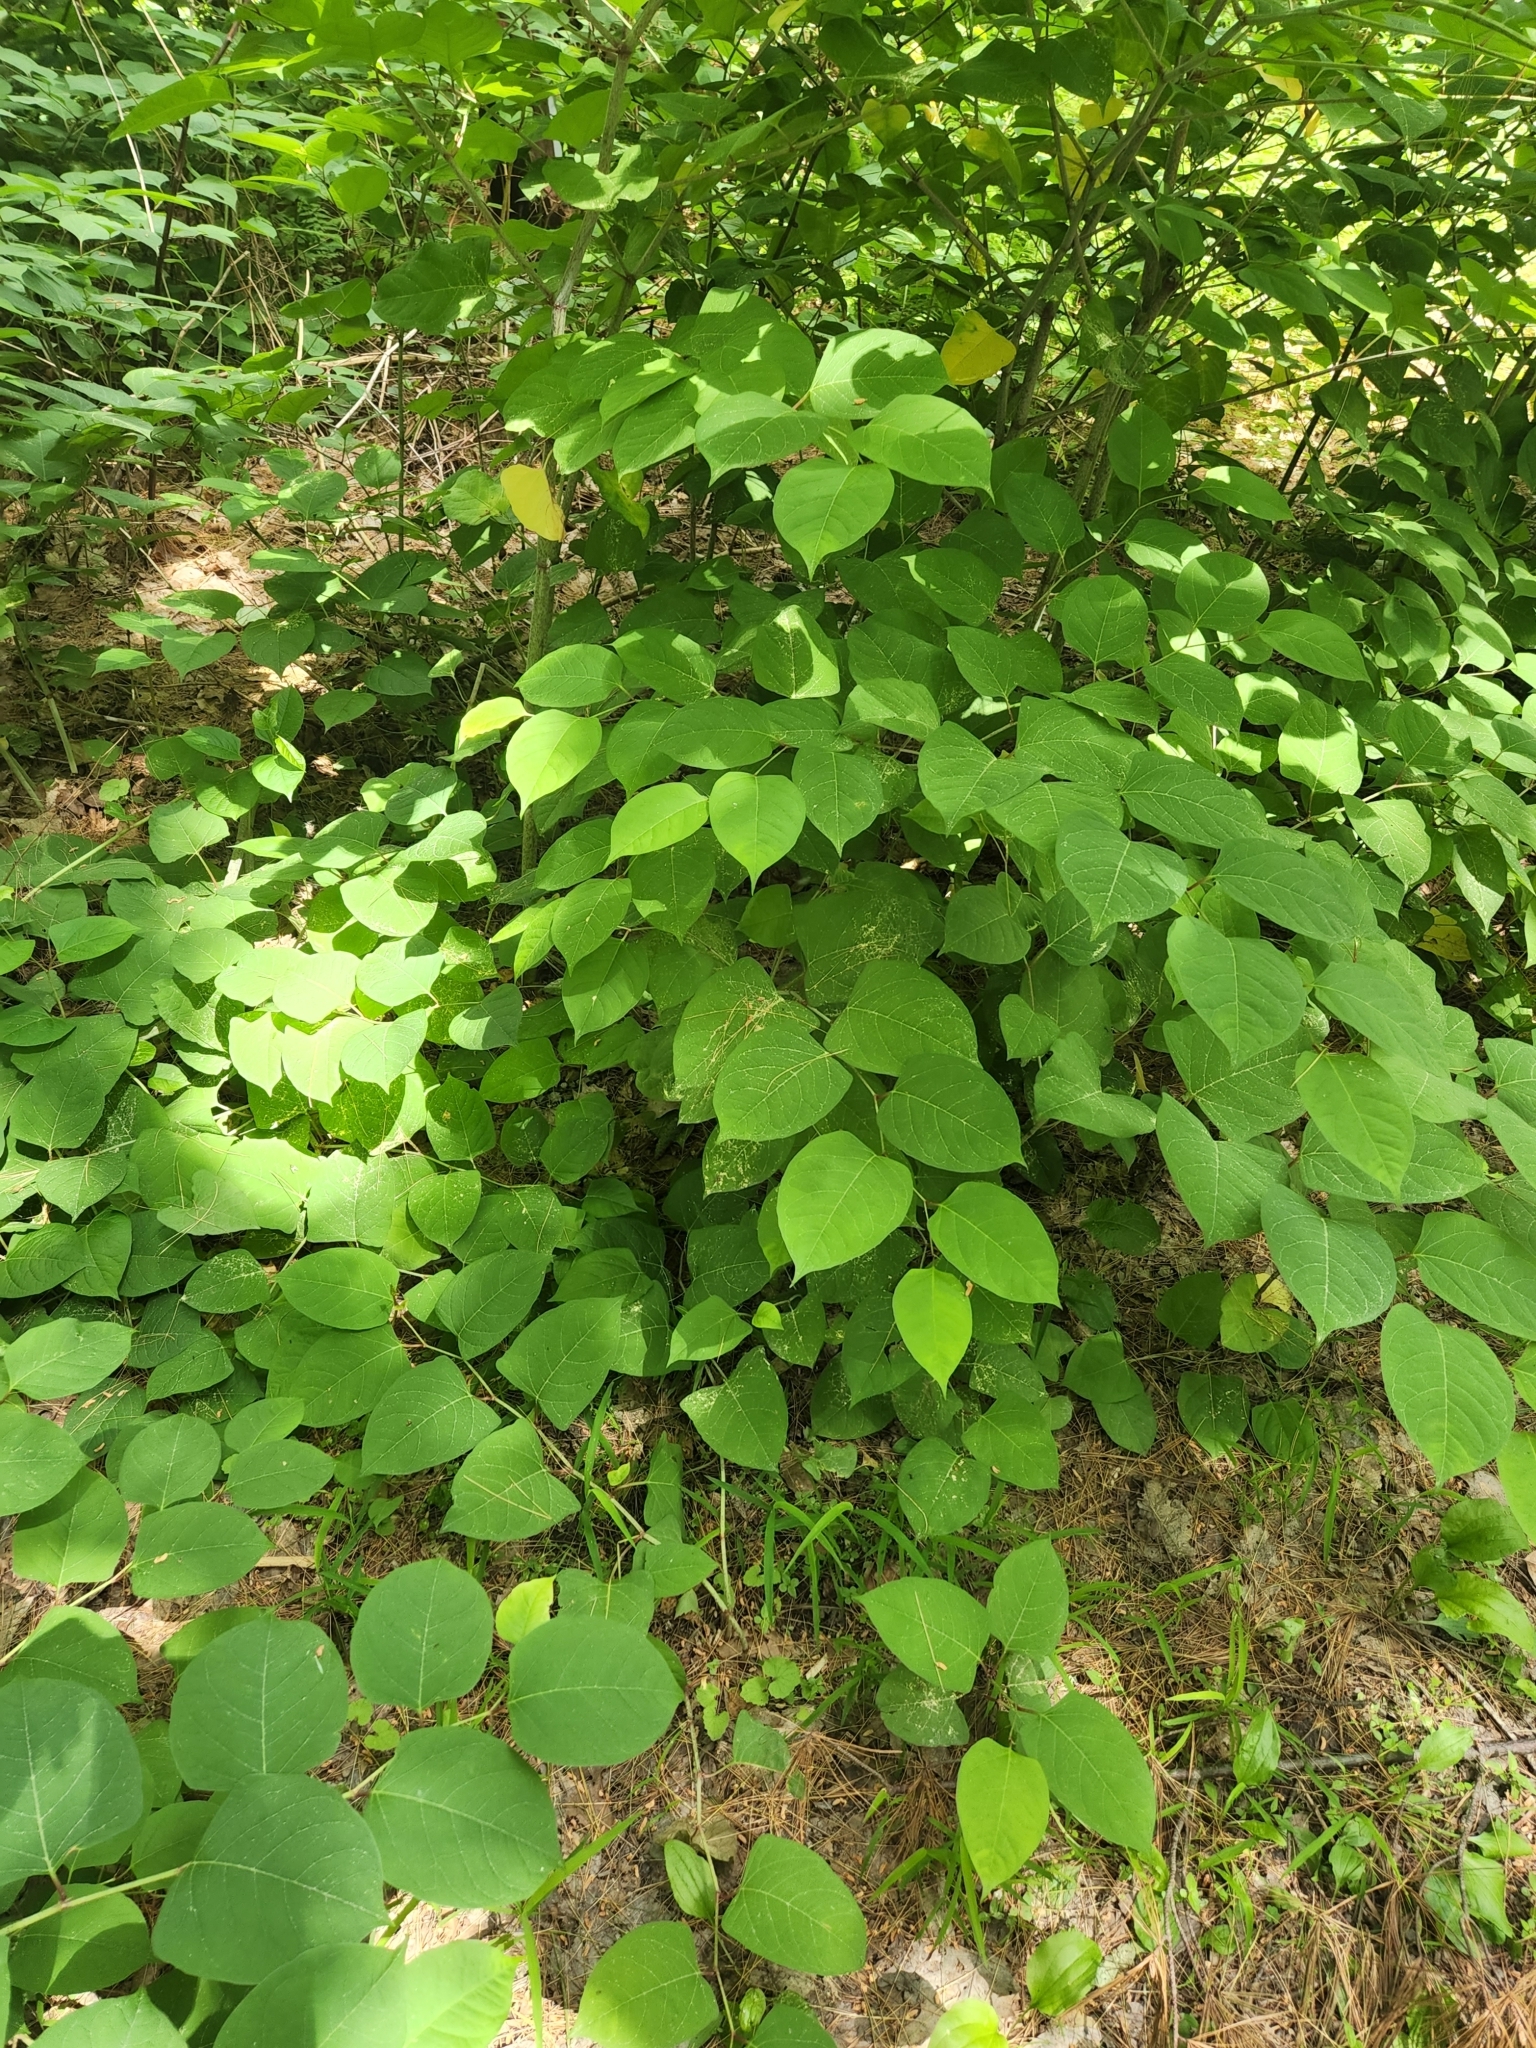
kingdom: Plantae
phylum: Tracheophyta
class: Magnoliopsida
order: Caryophyllales
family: Polygonaceae
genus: Reynoutria
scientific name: Reynoutria japonica
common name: Japanese knotweed
